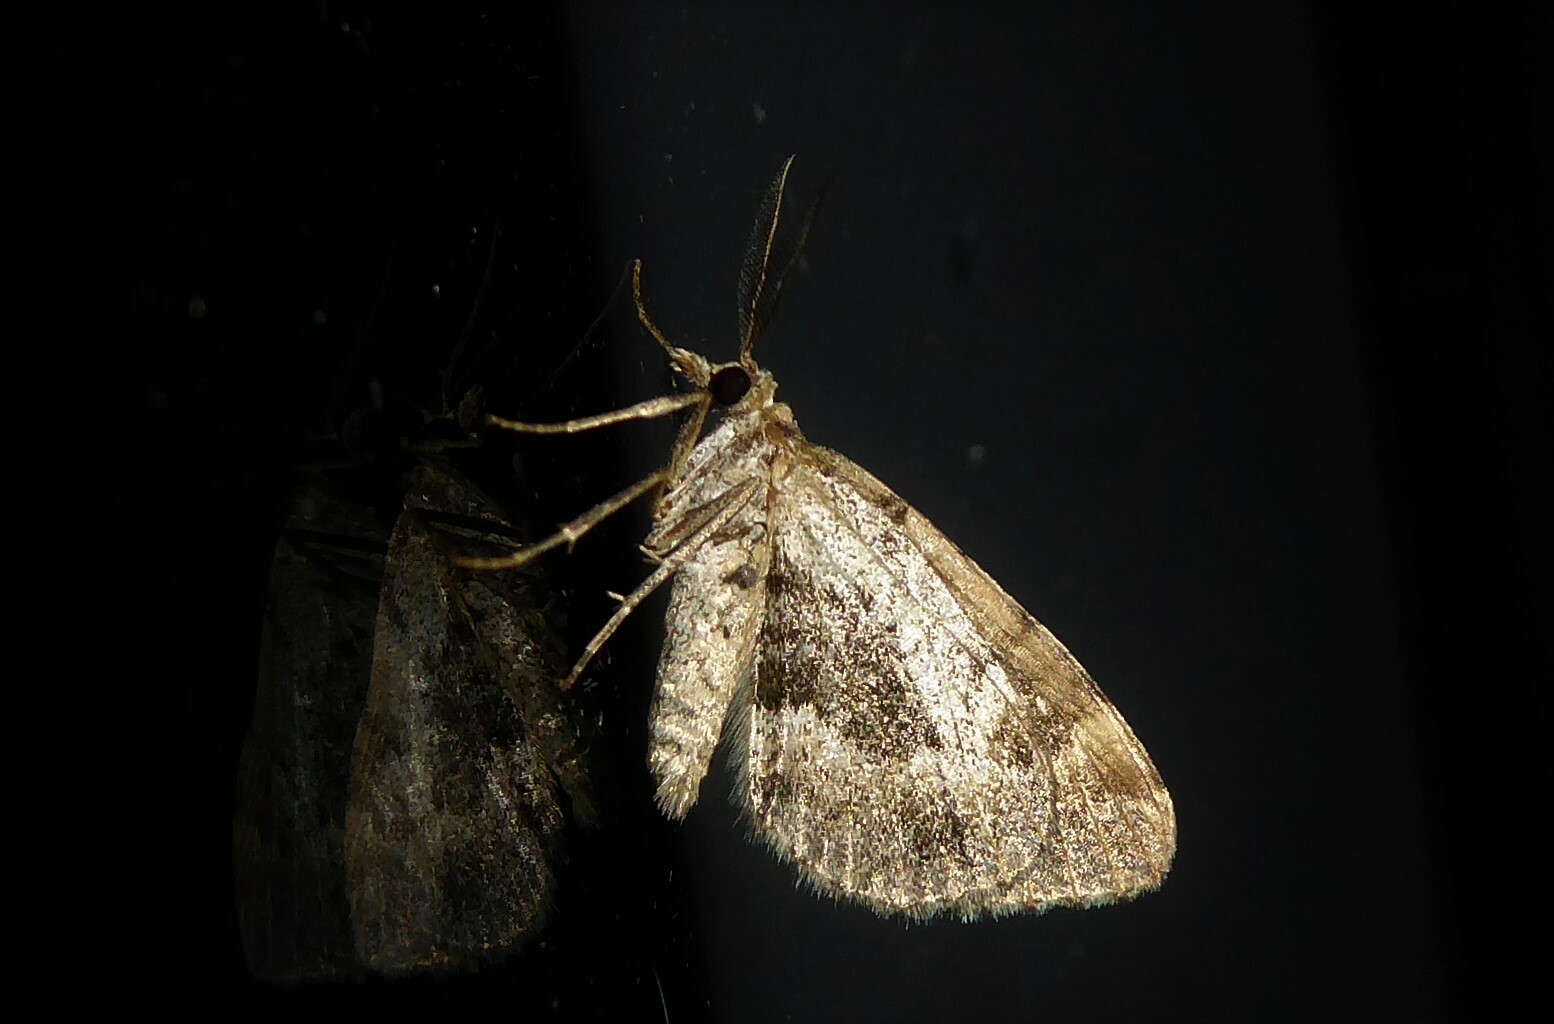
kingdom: Animalia
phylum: Arthropoda
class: Insecta
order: Lepidoptera
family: Geometridae
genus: Asaphodes
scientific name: Asaphodes aegrota
